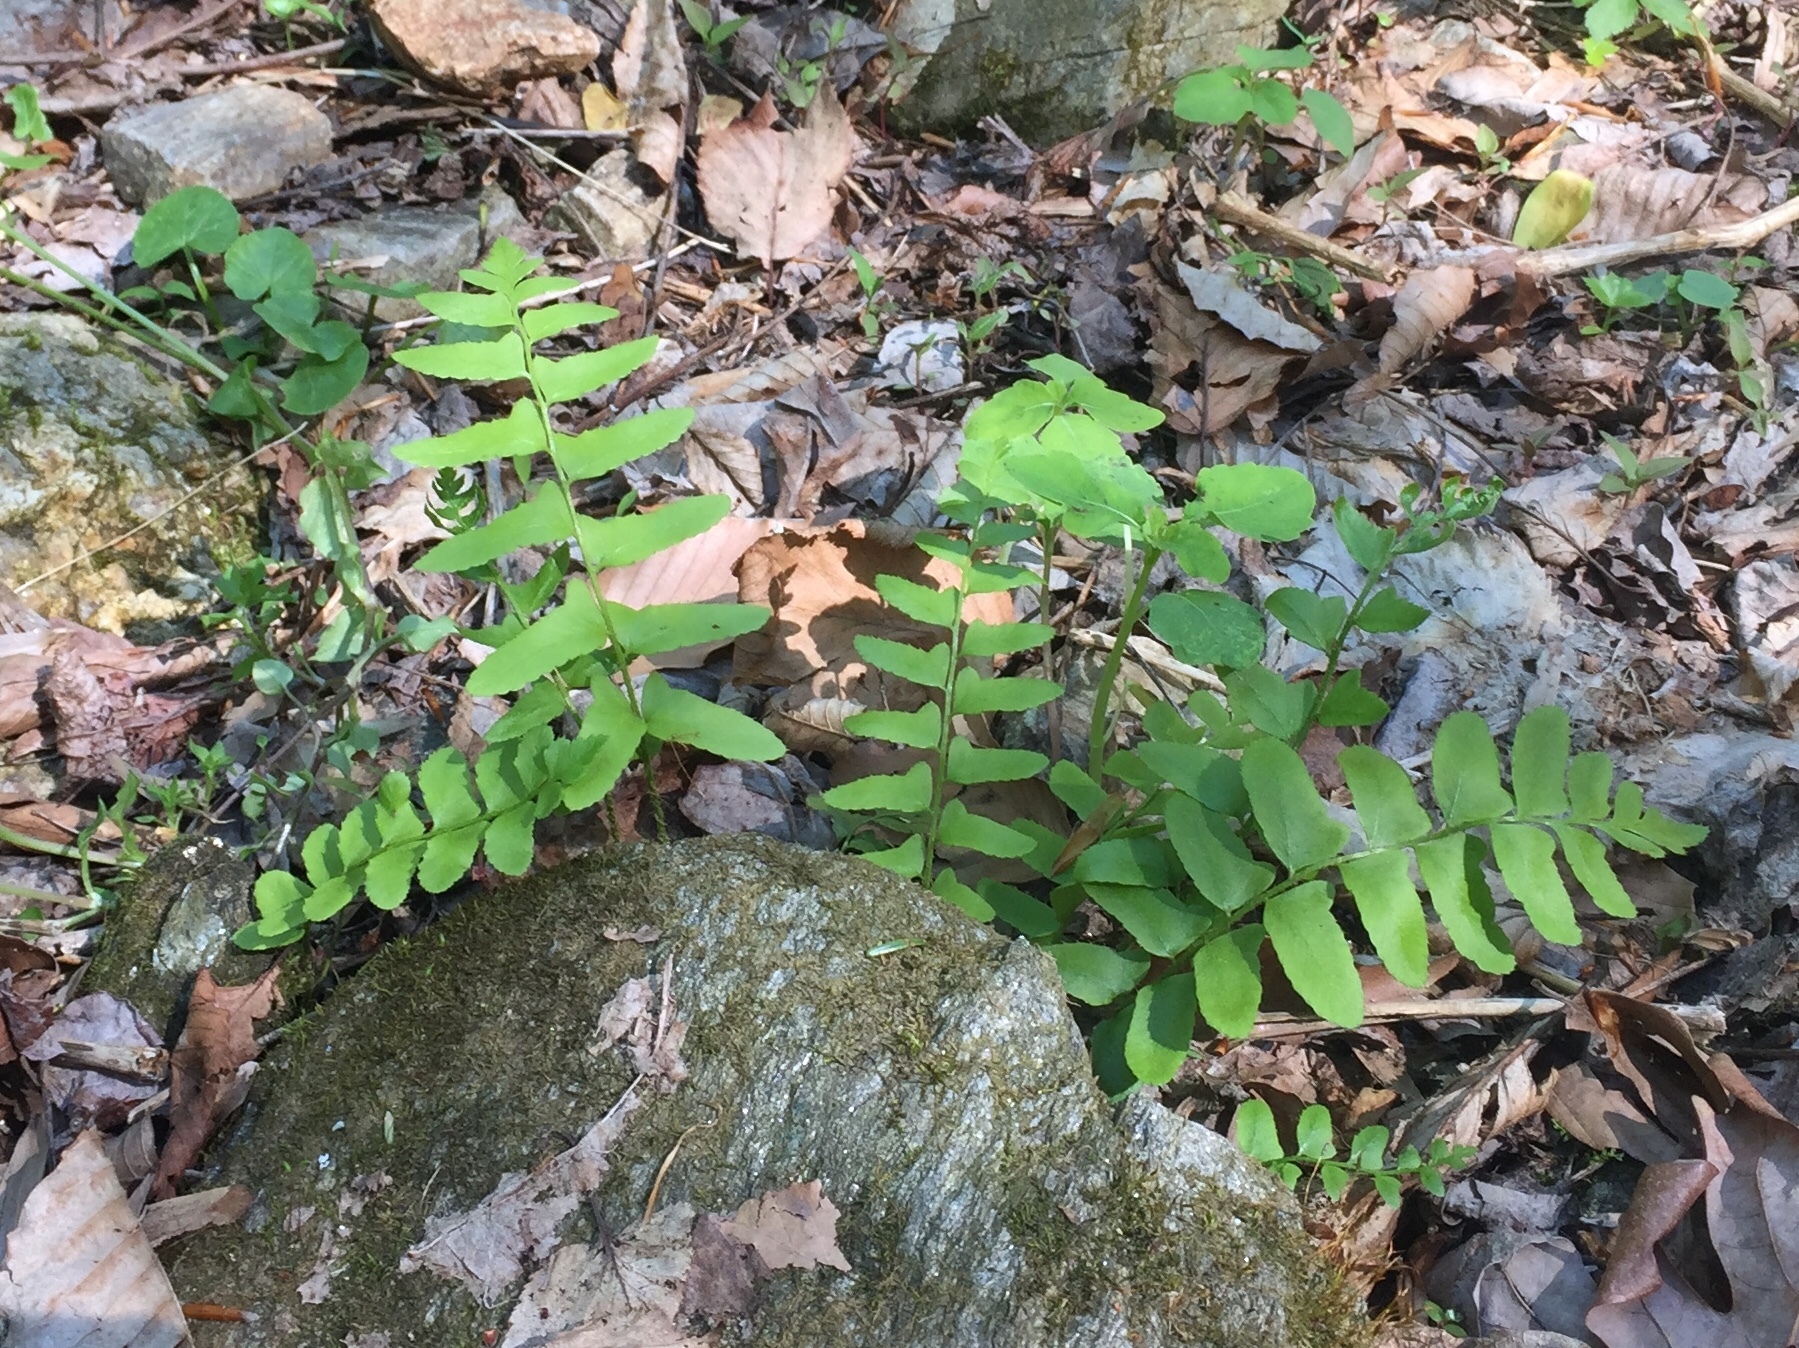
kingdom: Plantae
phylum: Tracheophyta
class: Polypodiopsida
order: Polypodiales
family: Dryopteridaceae
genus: Polystichum
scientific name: Polystichum acrostichoides
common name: Christmas fern
